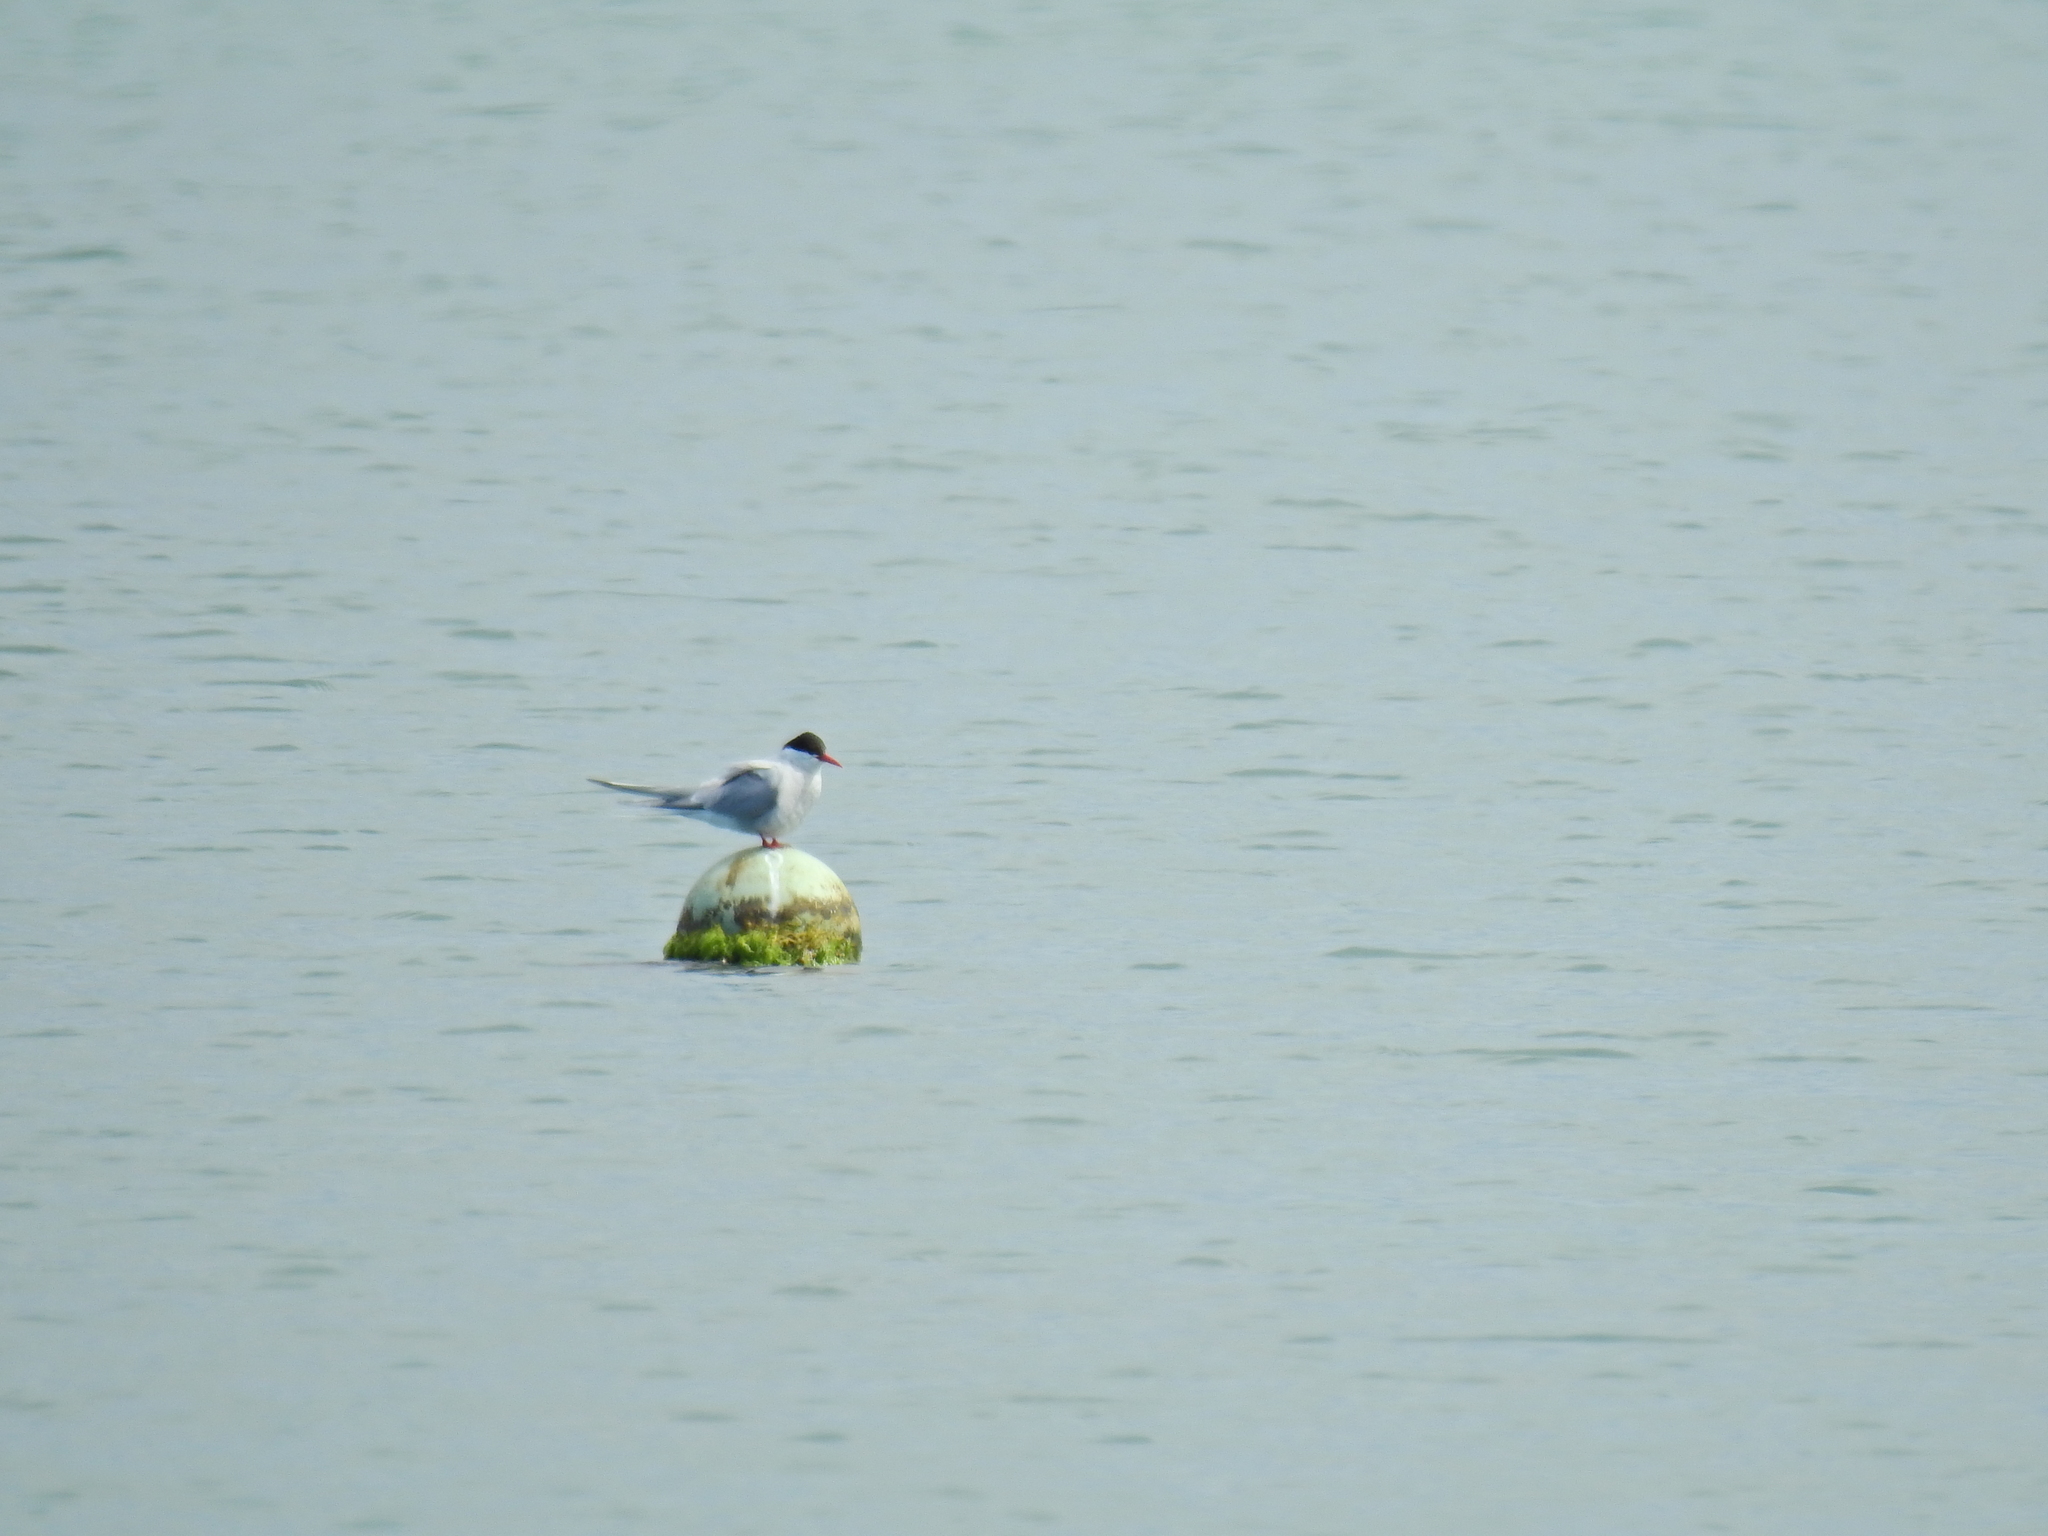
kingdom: Animalia
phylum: Chordata
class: Aves
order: Charadriiformes
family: Laridae
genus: Sterna
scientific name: Sterna paradisaea
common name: Arctic tern
